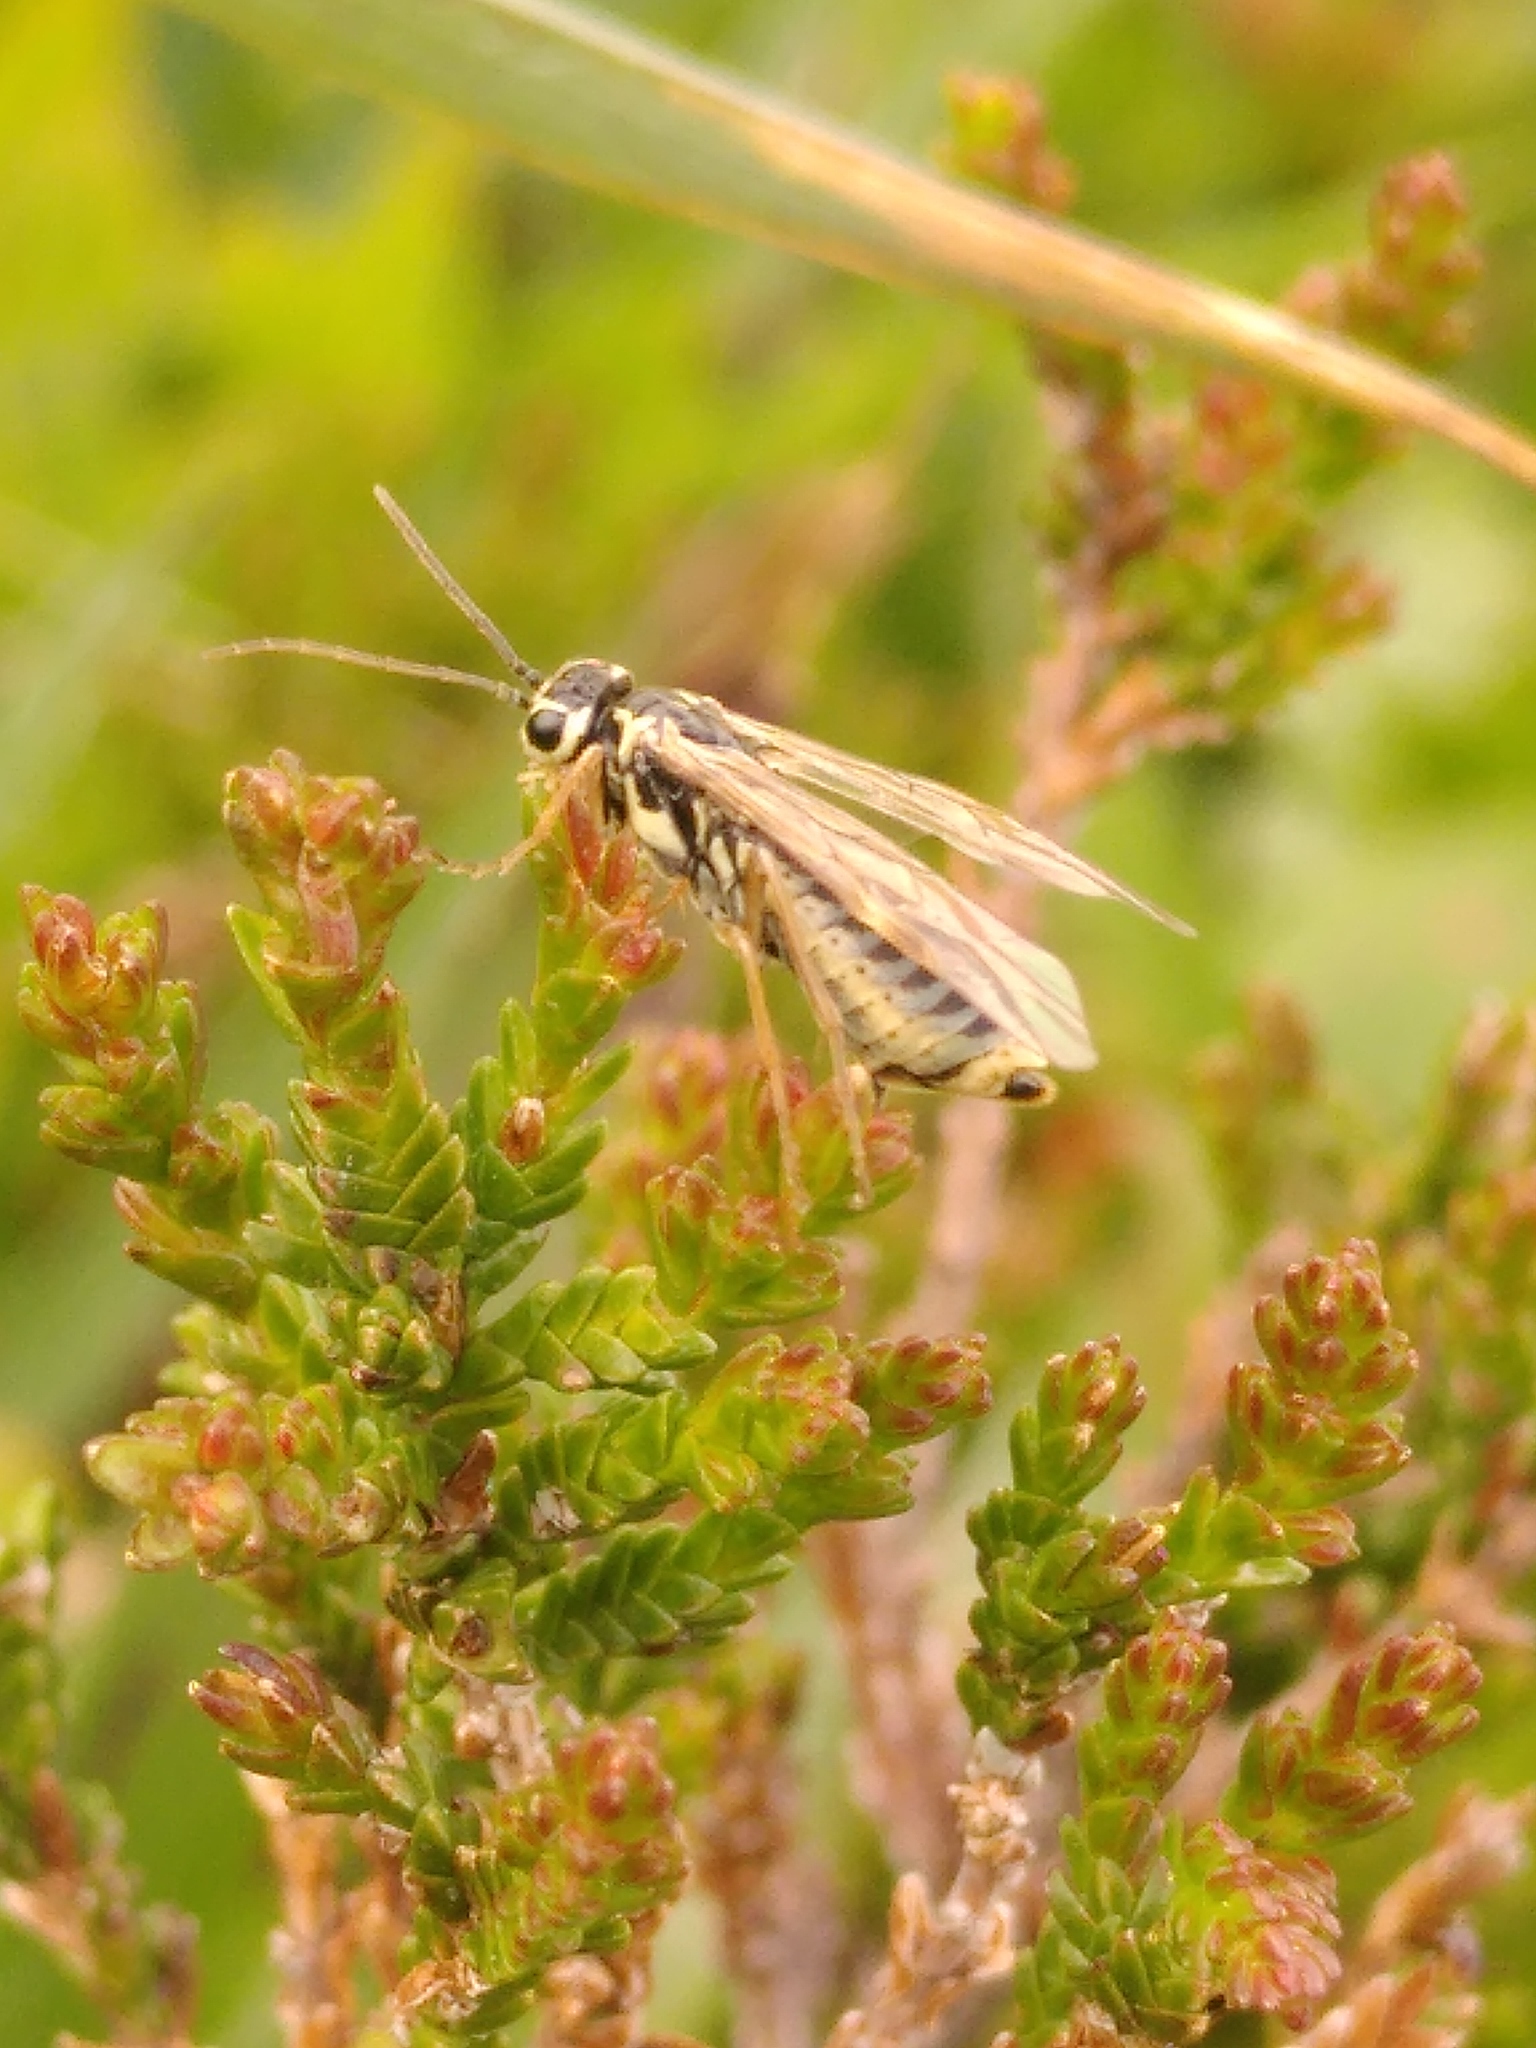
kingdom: Animalia
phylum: Arthropoda
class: Insecta
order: Hymenoptera
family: Tenthredinidae
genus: Aglaostigma
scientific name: Aglaostigma alboplagiatum
